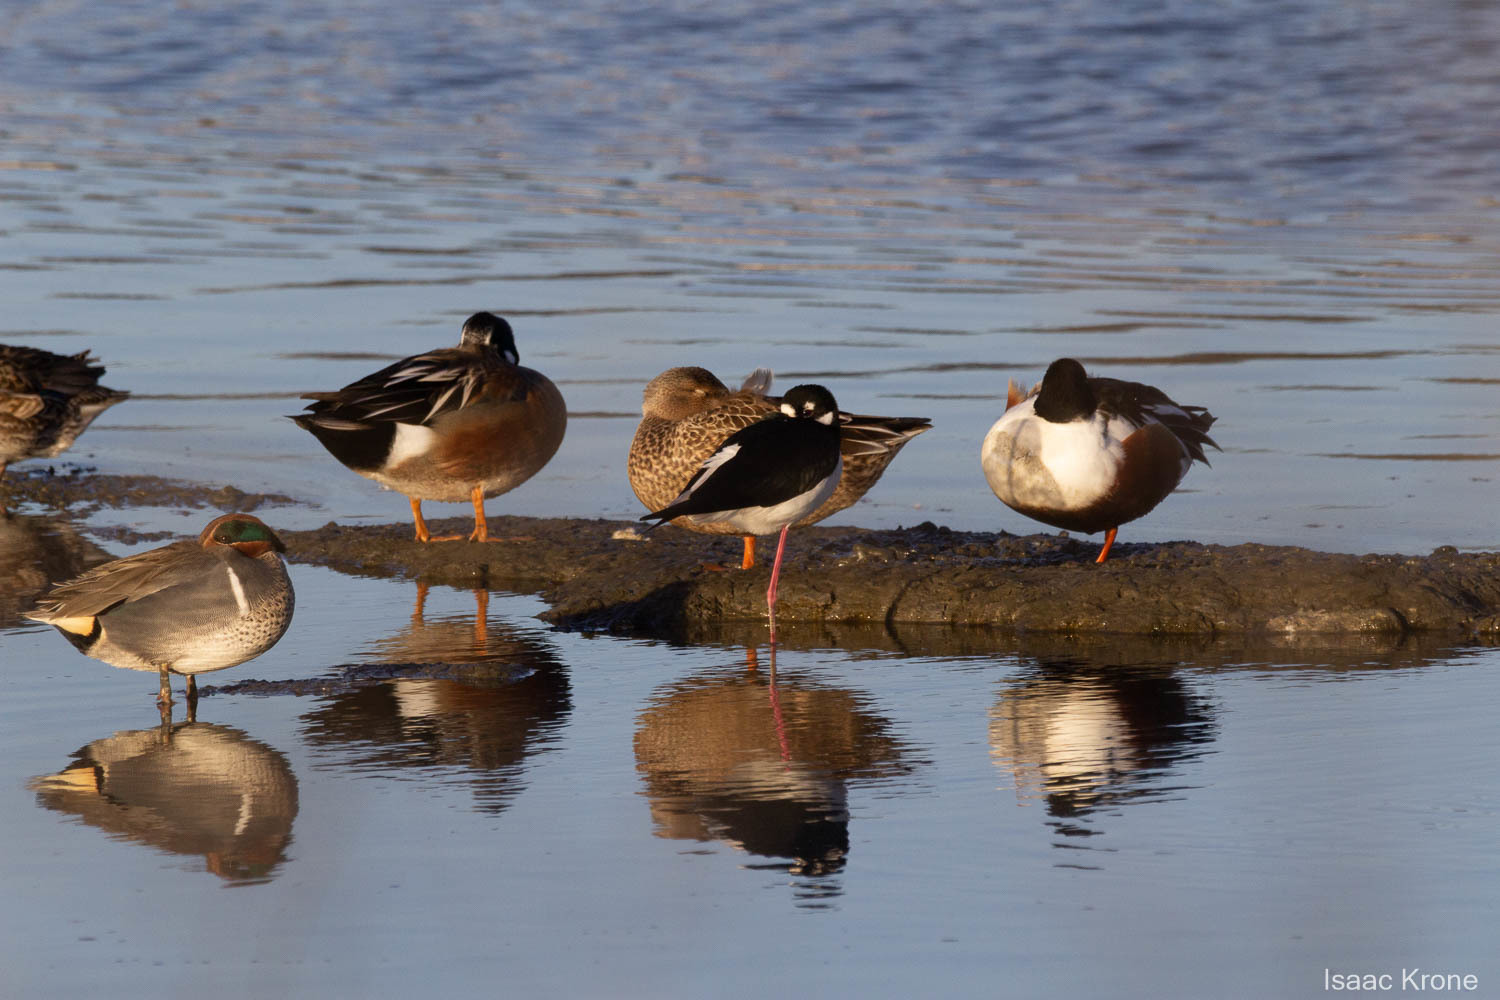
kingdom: Animalia
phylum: Chordata
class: Aves
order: Charadriiformes
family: Recurvirostridae
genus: Himantopus
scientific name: Himantopus mexicanus
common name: Black-necked stilt
